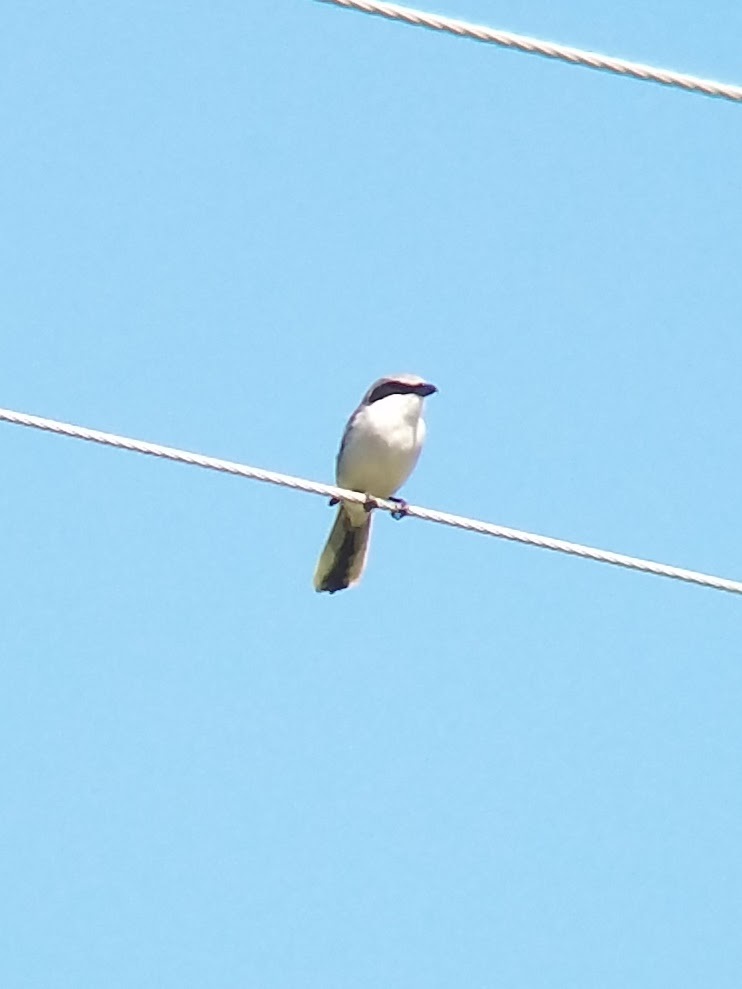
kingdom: Animalia
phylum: Chordata
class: Aves
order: Passeriformes
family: Laniidae
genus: Lanius
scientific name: Lanius ludovicianus
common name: Loggerhead shrike
